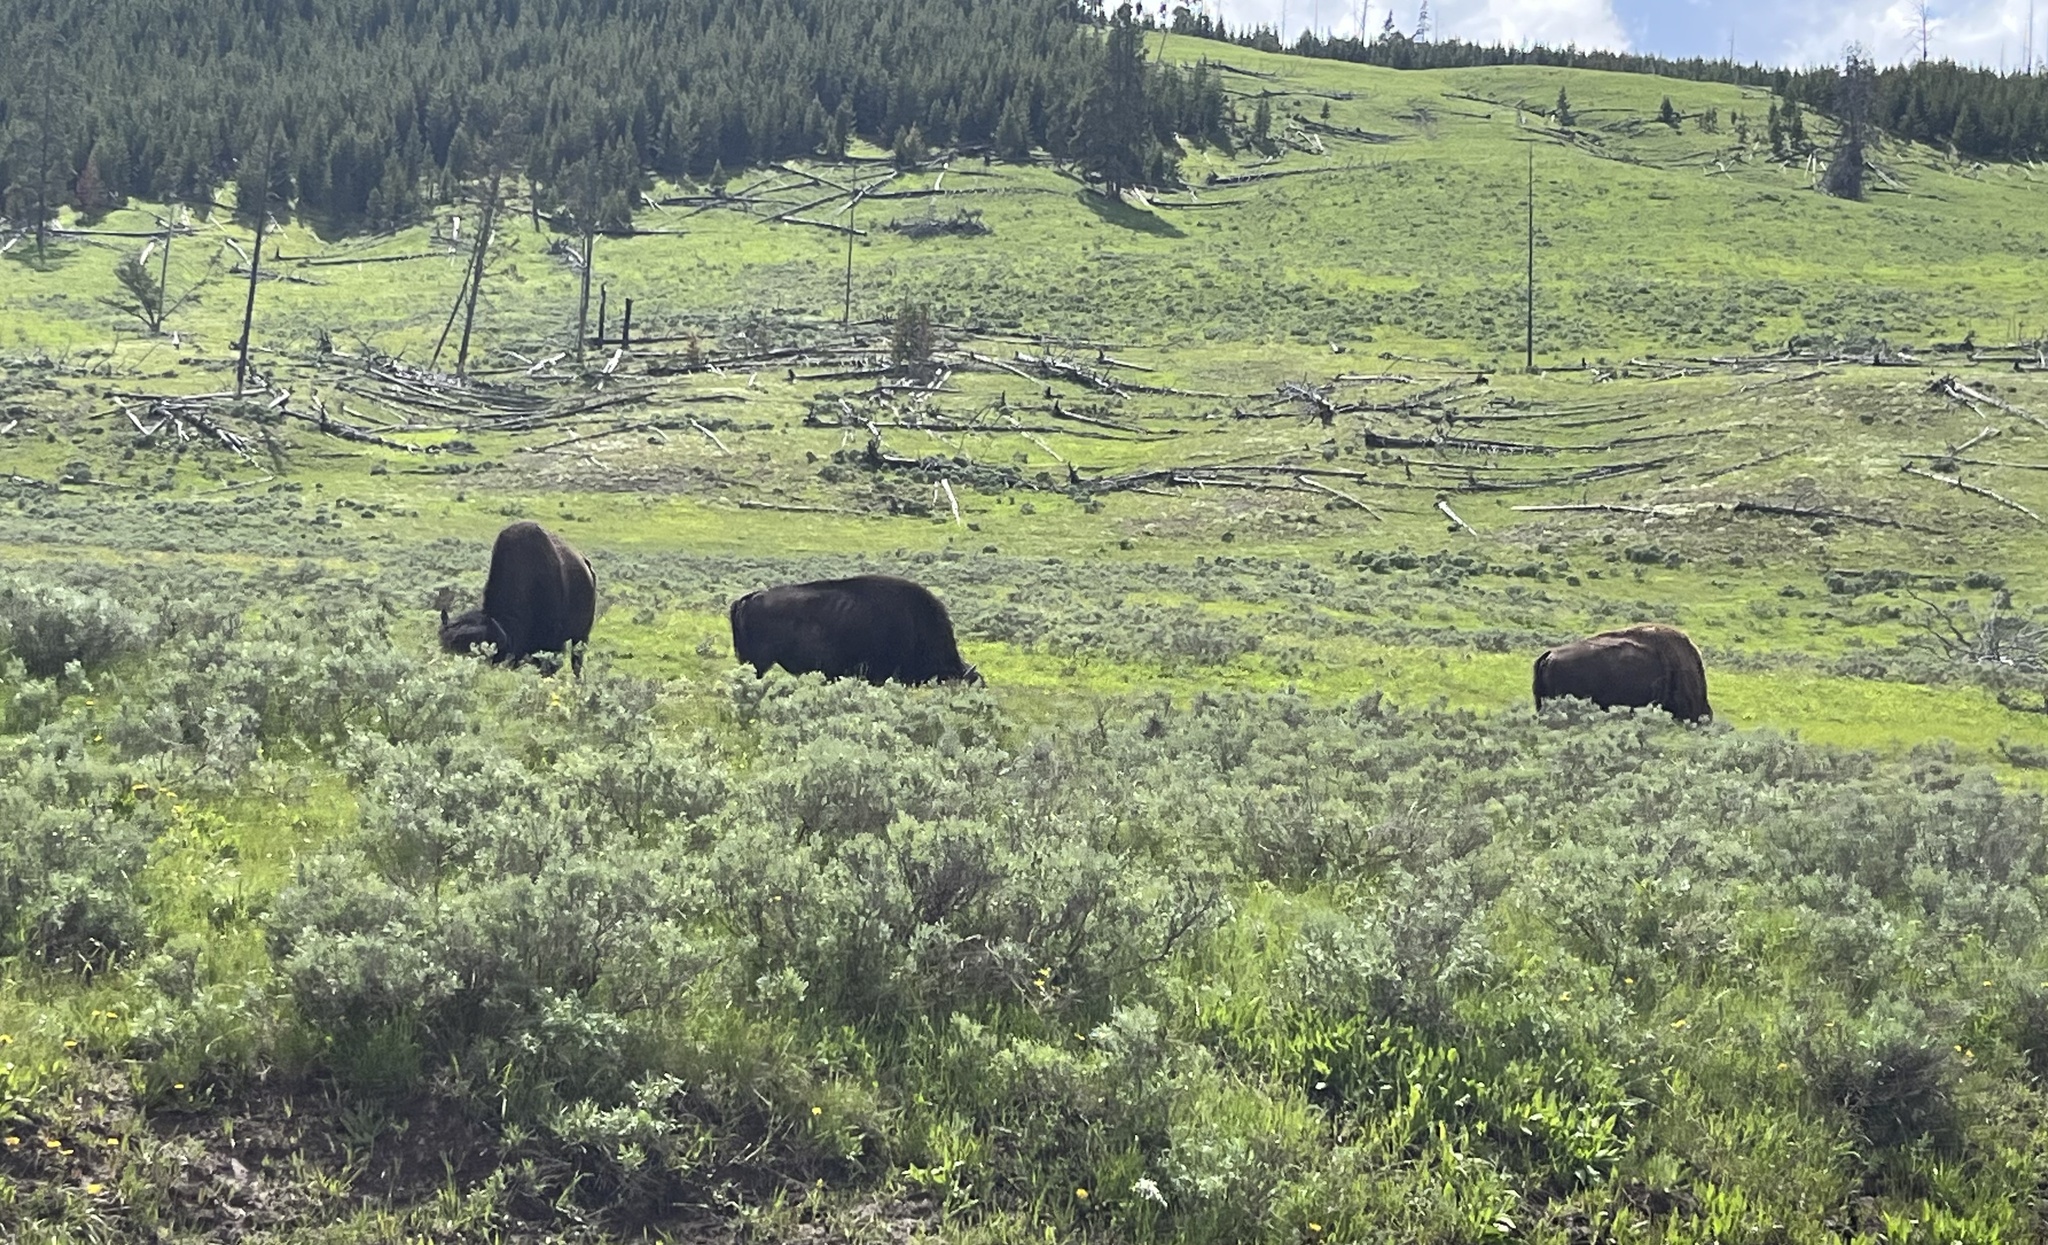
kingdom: Animalia
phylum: Chordata
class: Mammalia
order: Artiodactyla
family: Bovidae
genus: Bison
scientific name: Bison bison
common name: American bison
